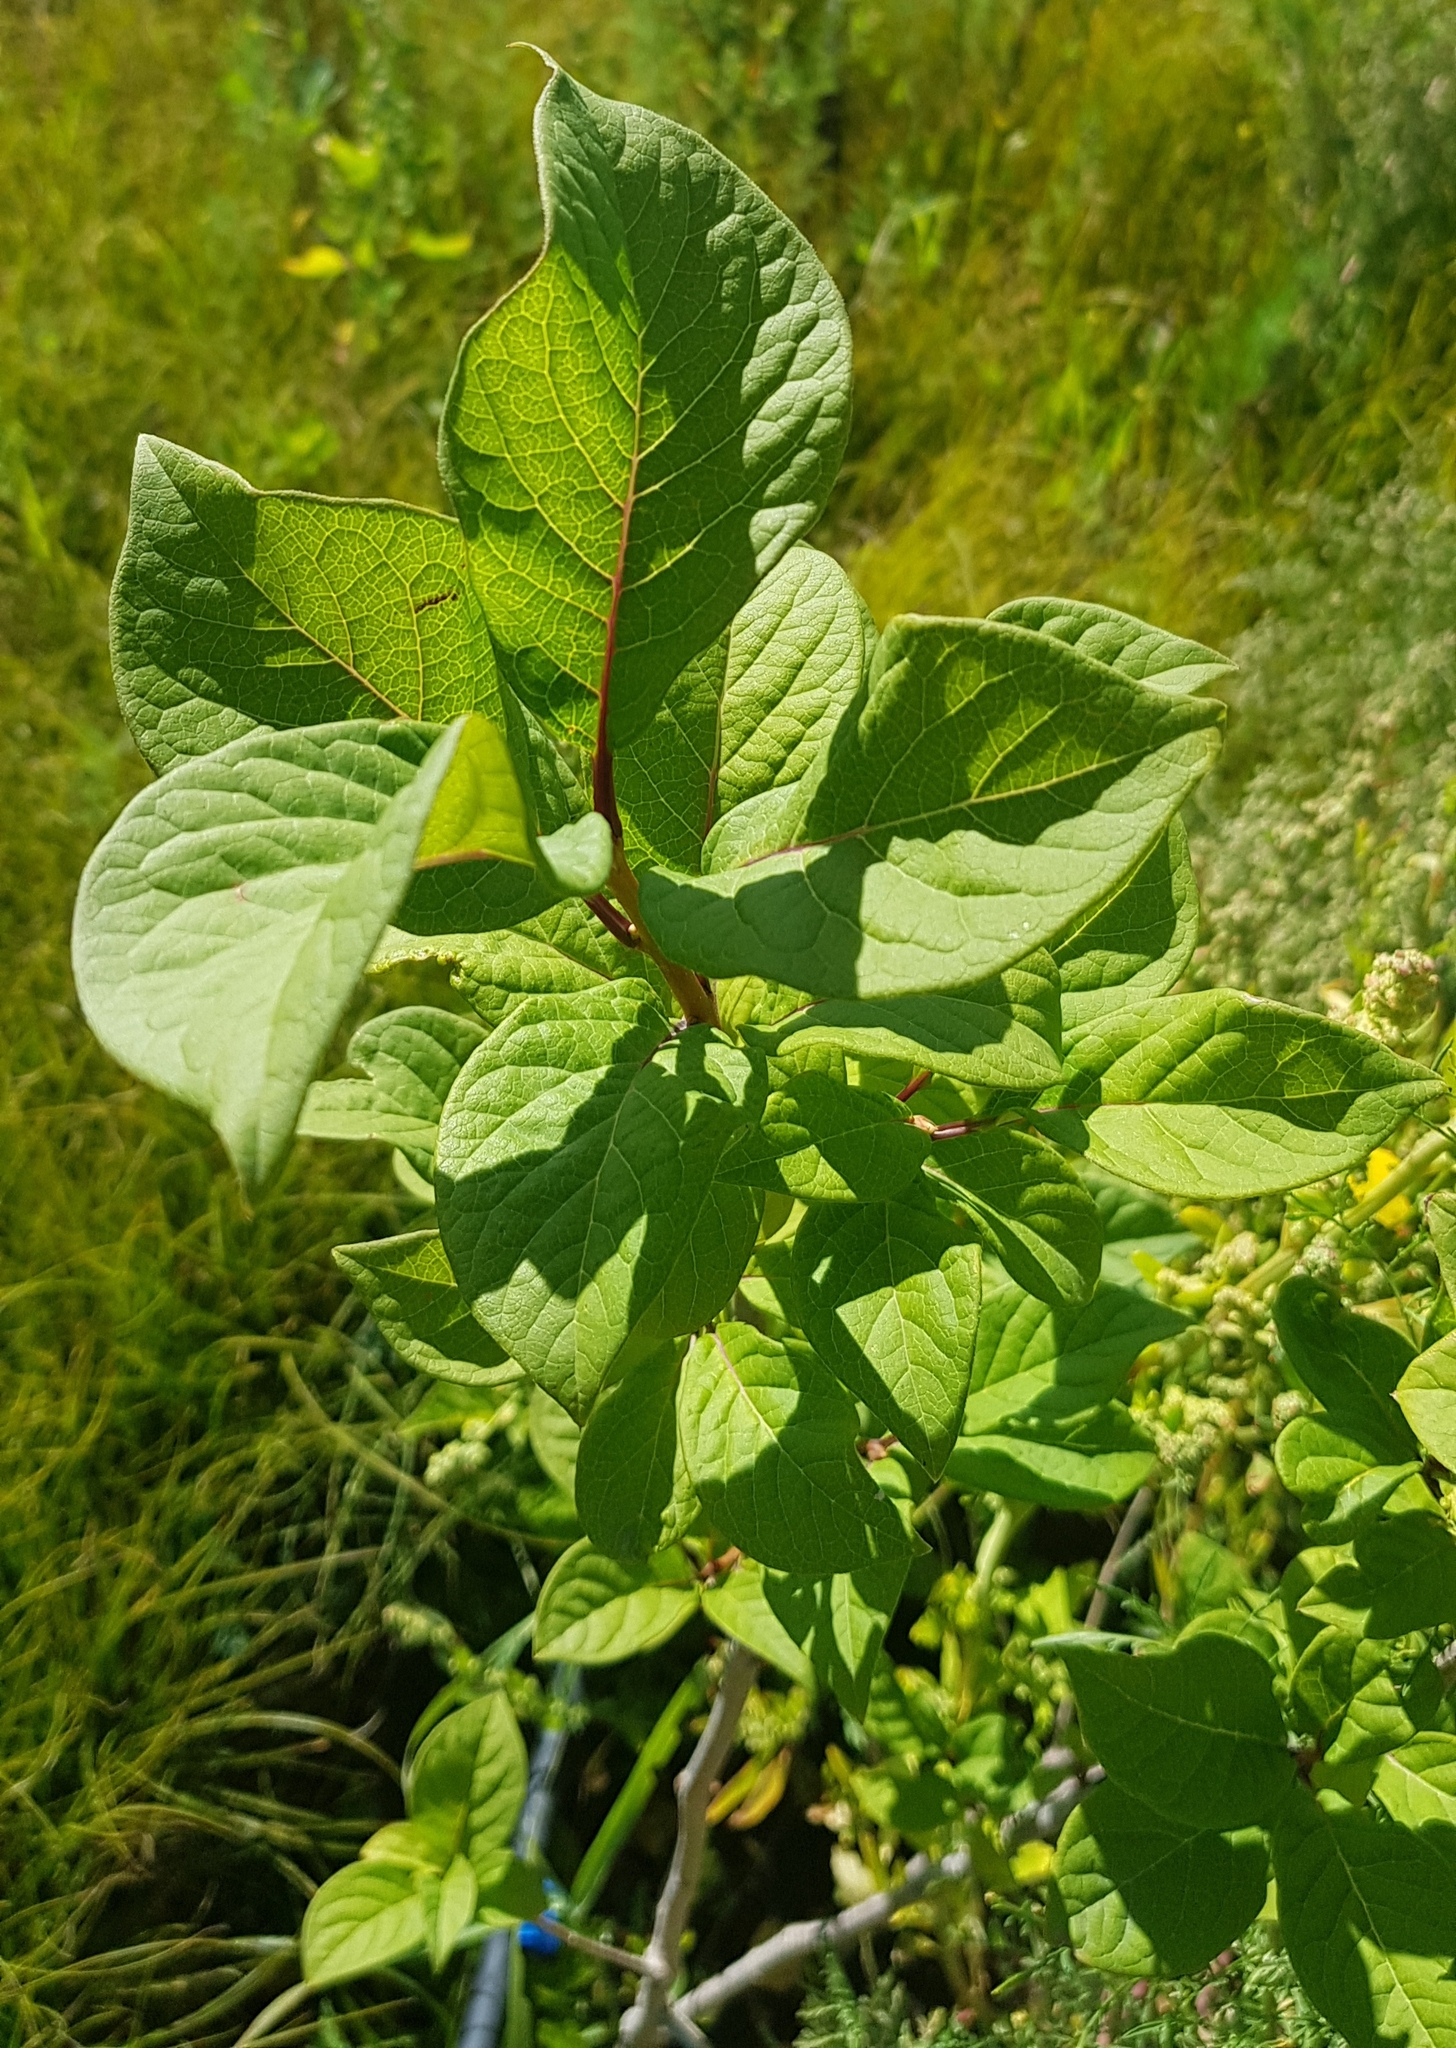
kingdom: Plantae
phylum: Tracheophyta
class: Magnoliopsida
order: Rosales
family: Rosaceae
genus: Prunus
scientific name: Prunus padus
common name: Bird cherry
